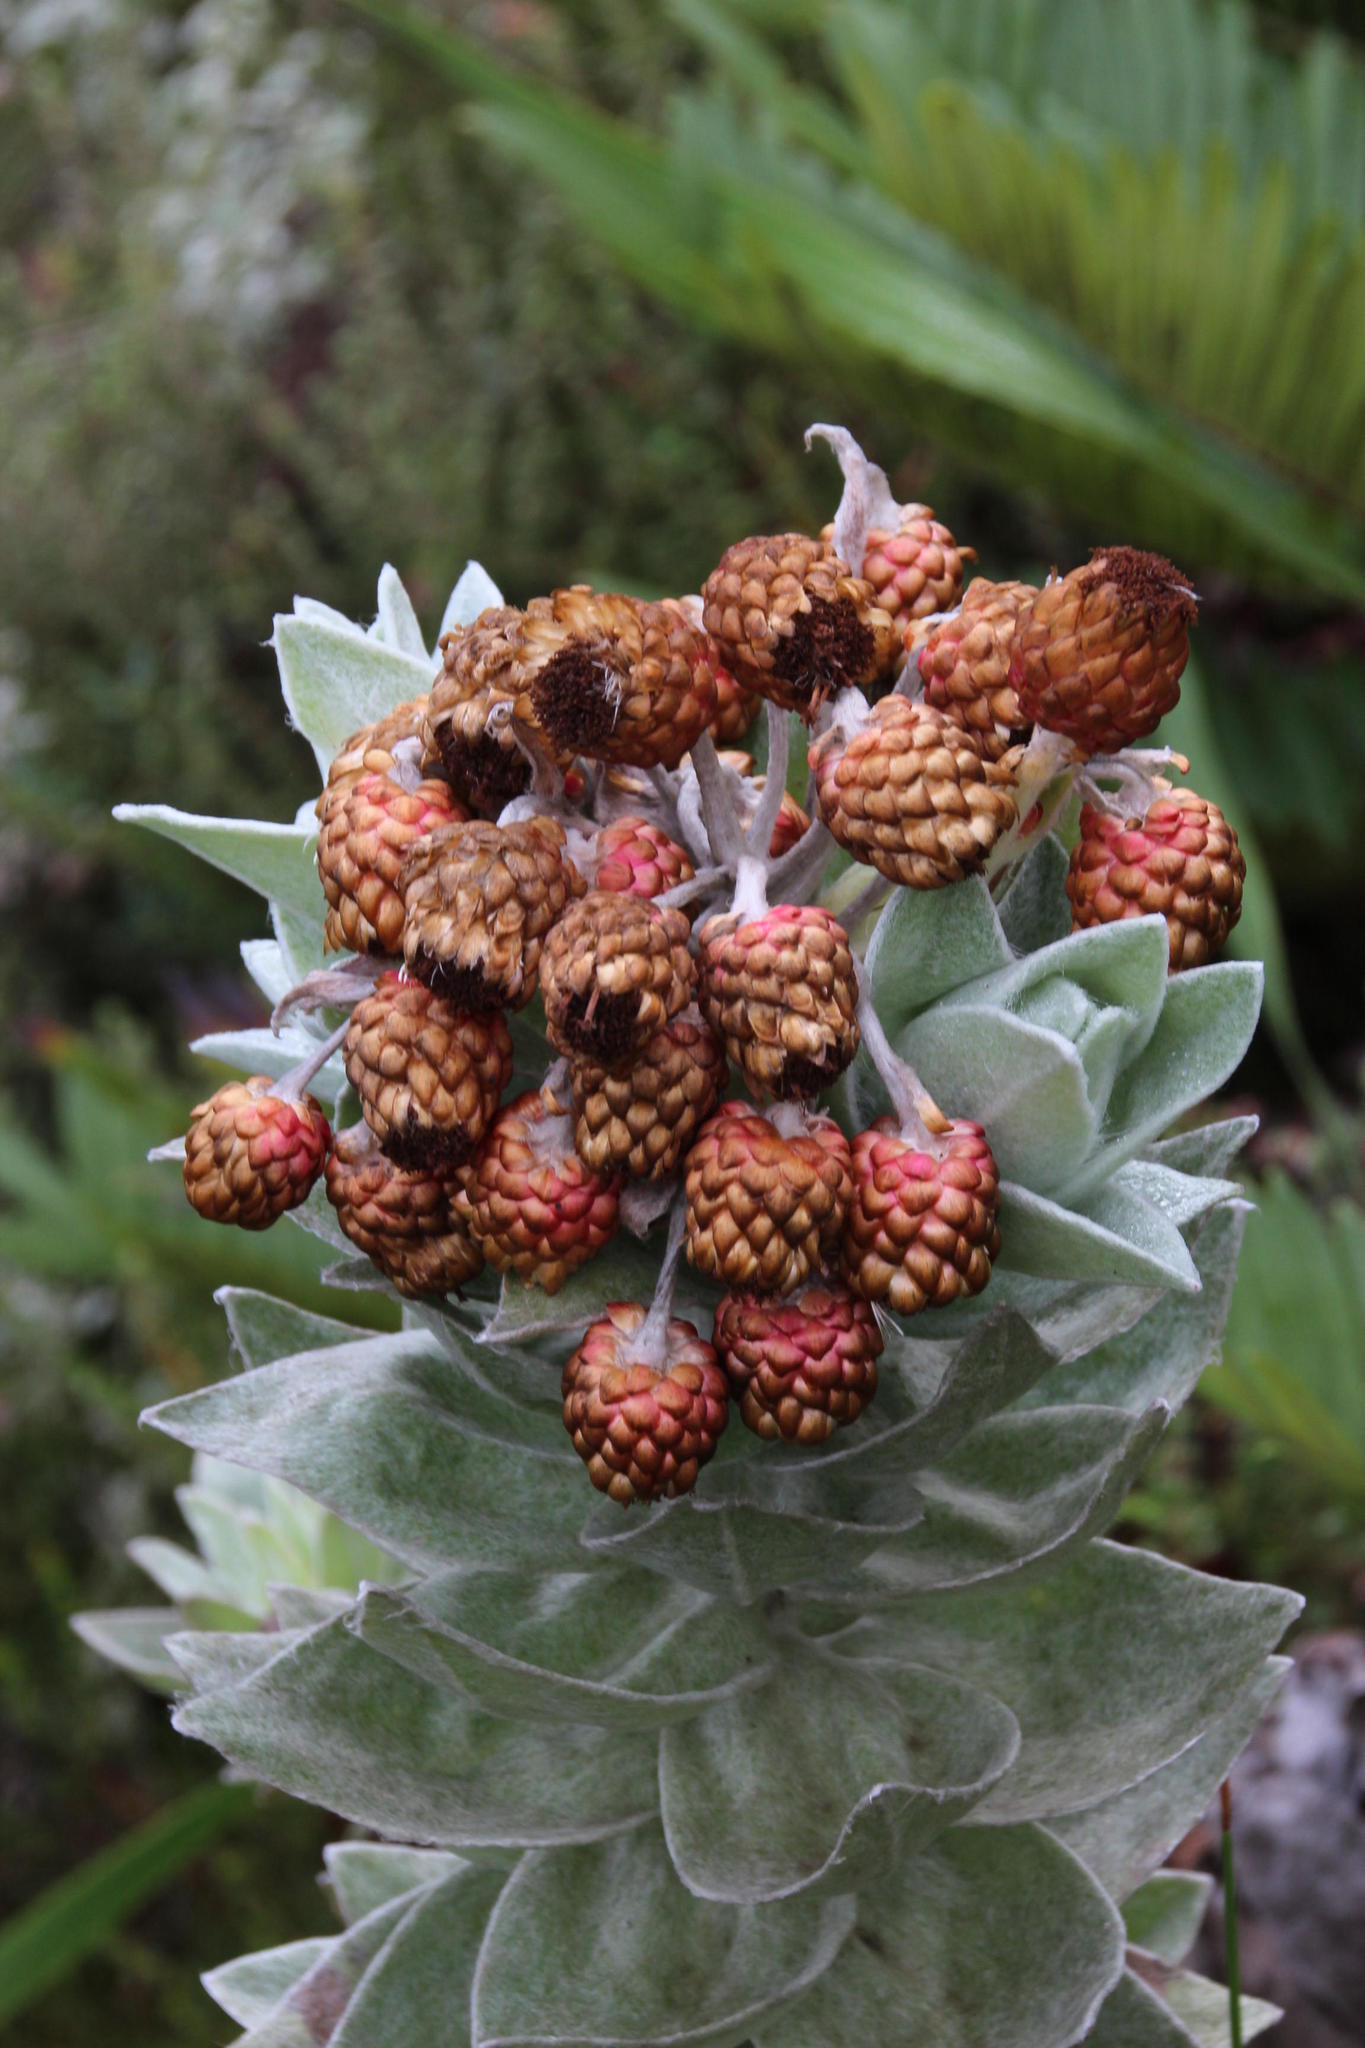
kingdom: Plantae
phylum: Tracheophyta
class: Magnoliopsida
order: Asterales
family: Asteraceae
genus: Syncarpha
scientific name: Syncarpha eximia
